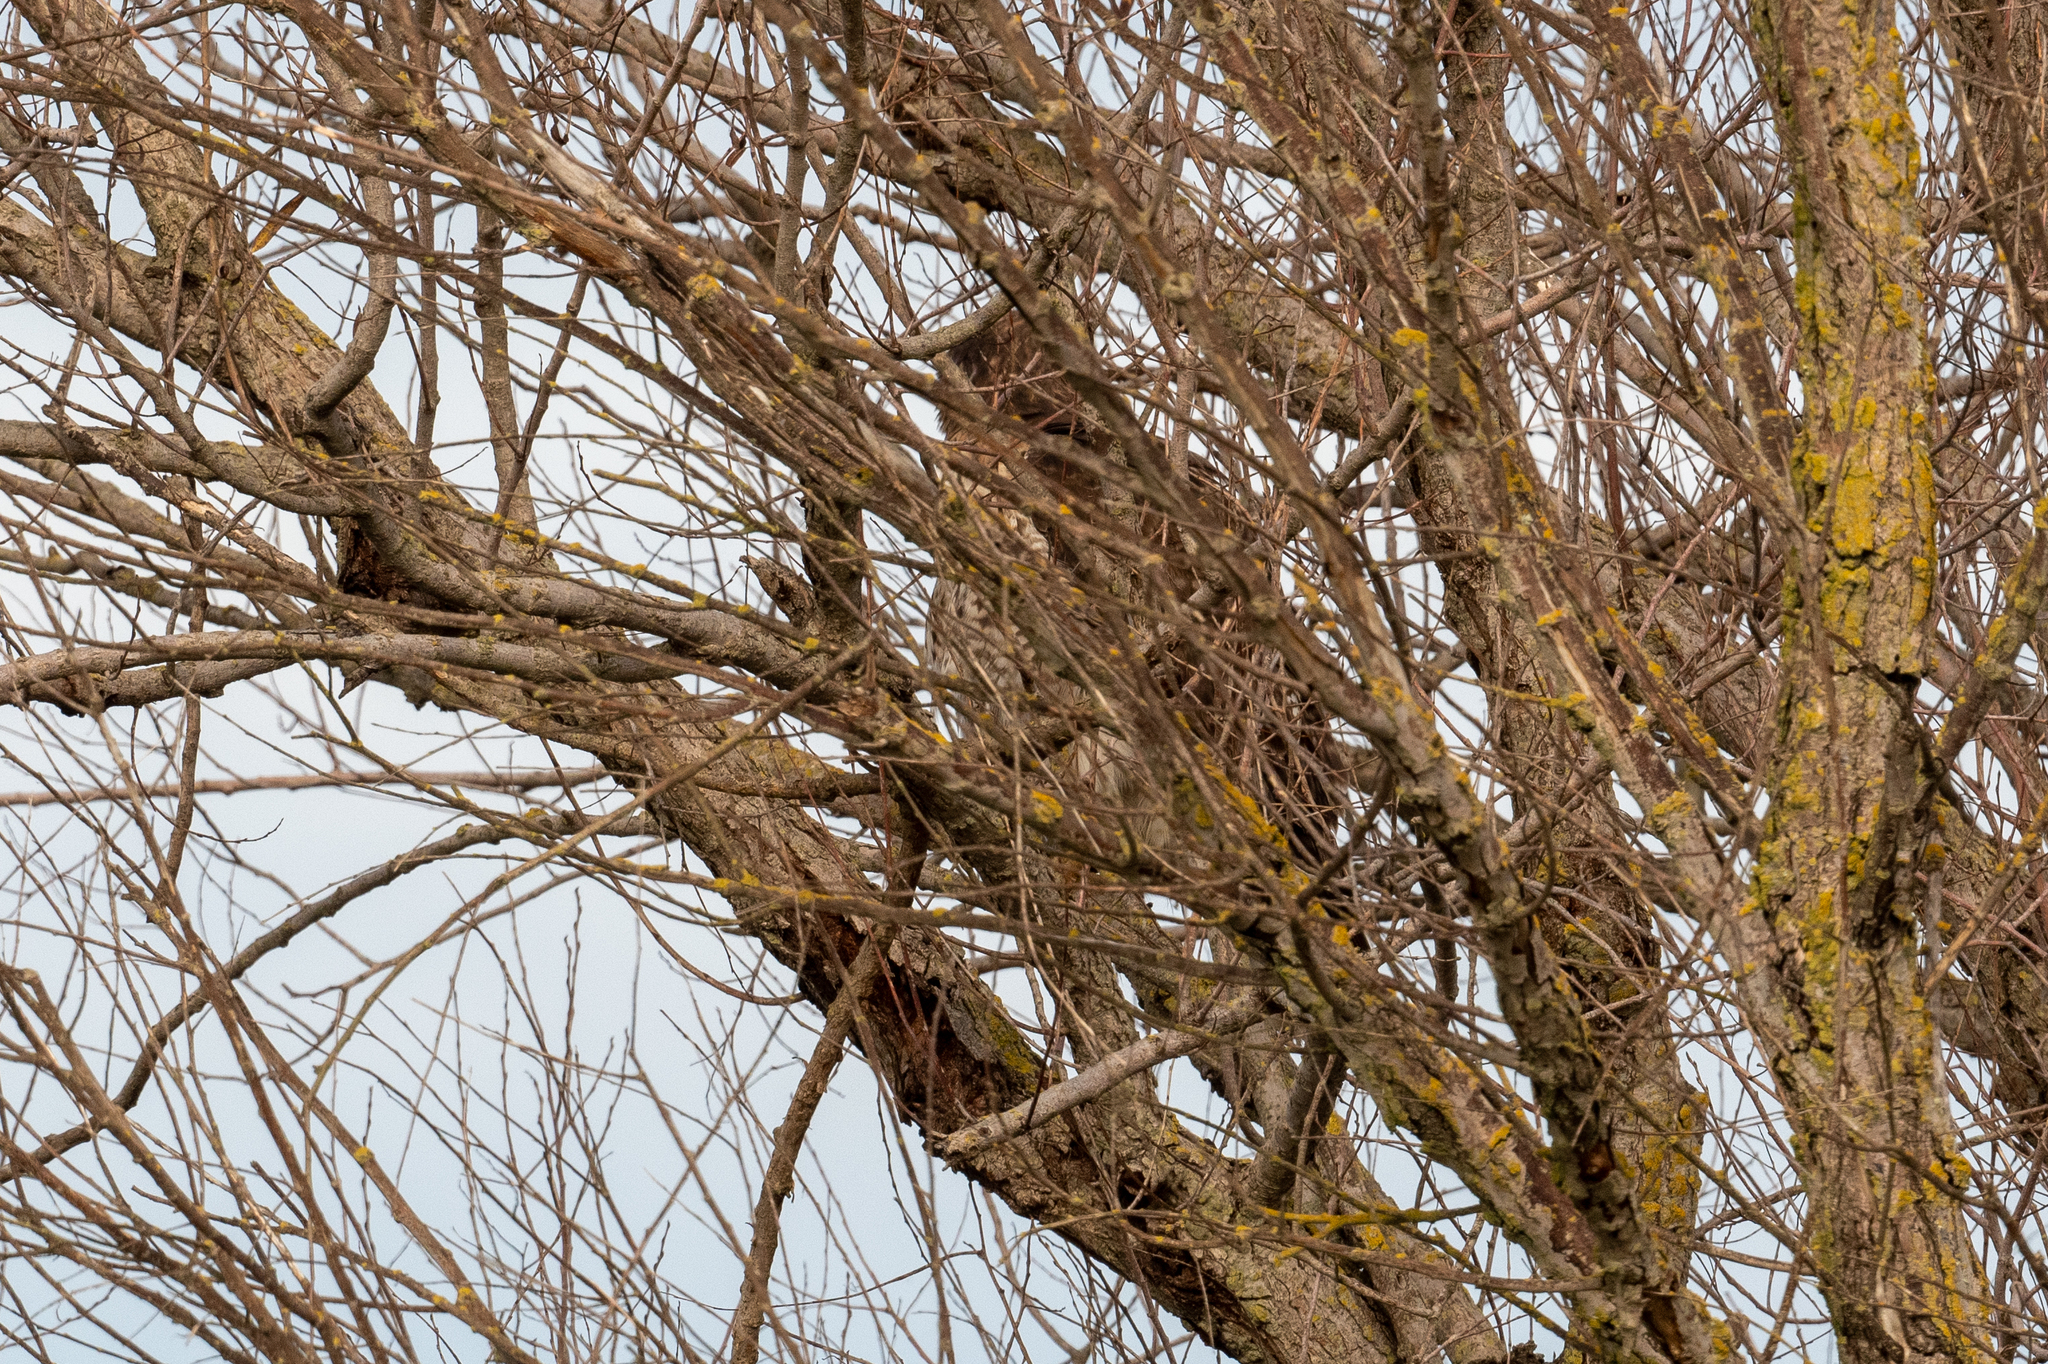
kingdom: Animalia
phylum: Chordata
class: Aves
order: Accipitriformes
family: Accipitridae
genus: Buteo
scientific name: Buteo jamaicensis
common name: Red-tailed hawk
